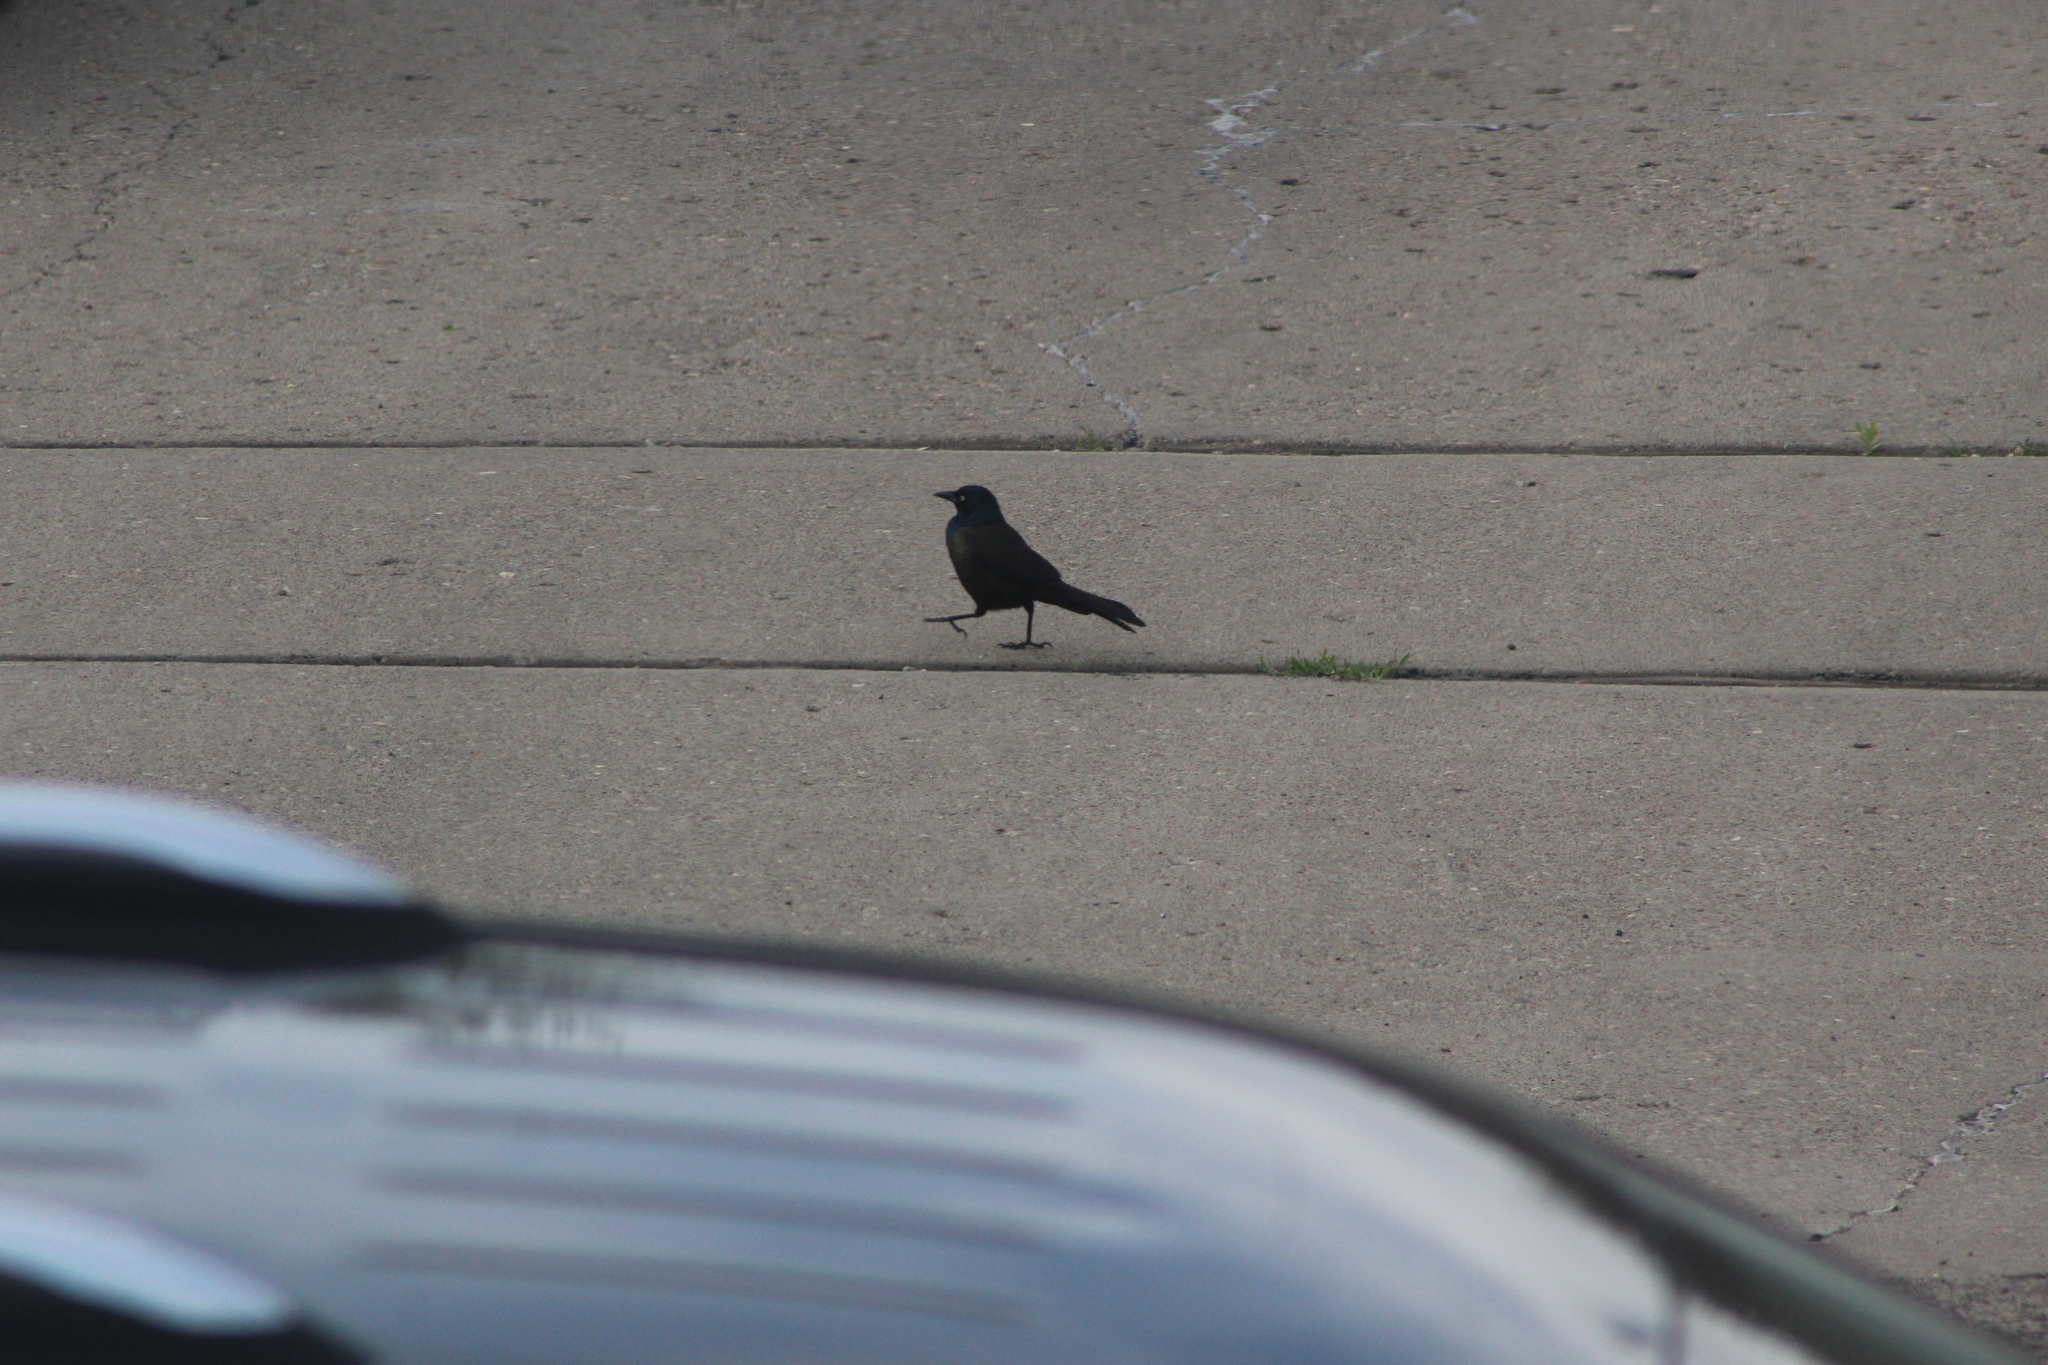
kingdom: Animalia
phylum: Chordata
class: Aves
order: Passeriformes
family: Icteridae
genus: Quiscalus
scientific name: Quiscalus quiscula
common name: Common grackle
